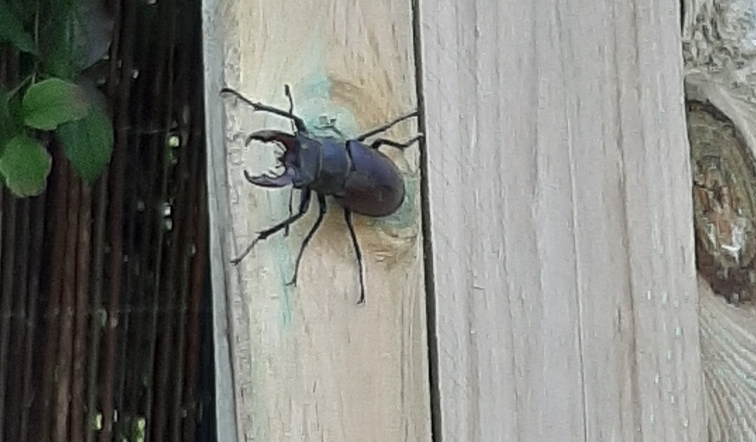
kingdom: Animalia
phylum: Arthropoda
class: Insecta
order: Coleoptera
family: Lucanidae
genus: Lucanus
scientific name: Lucanus cervus
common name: Stag beetle
